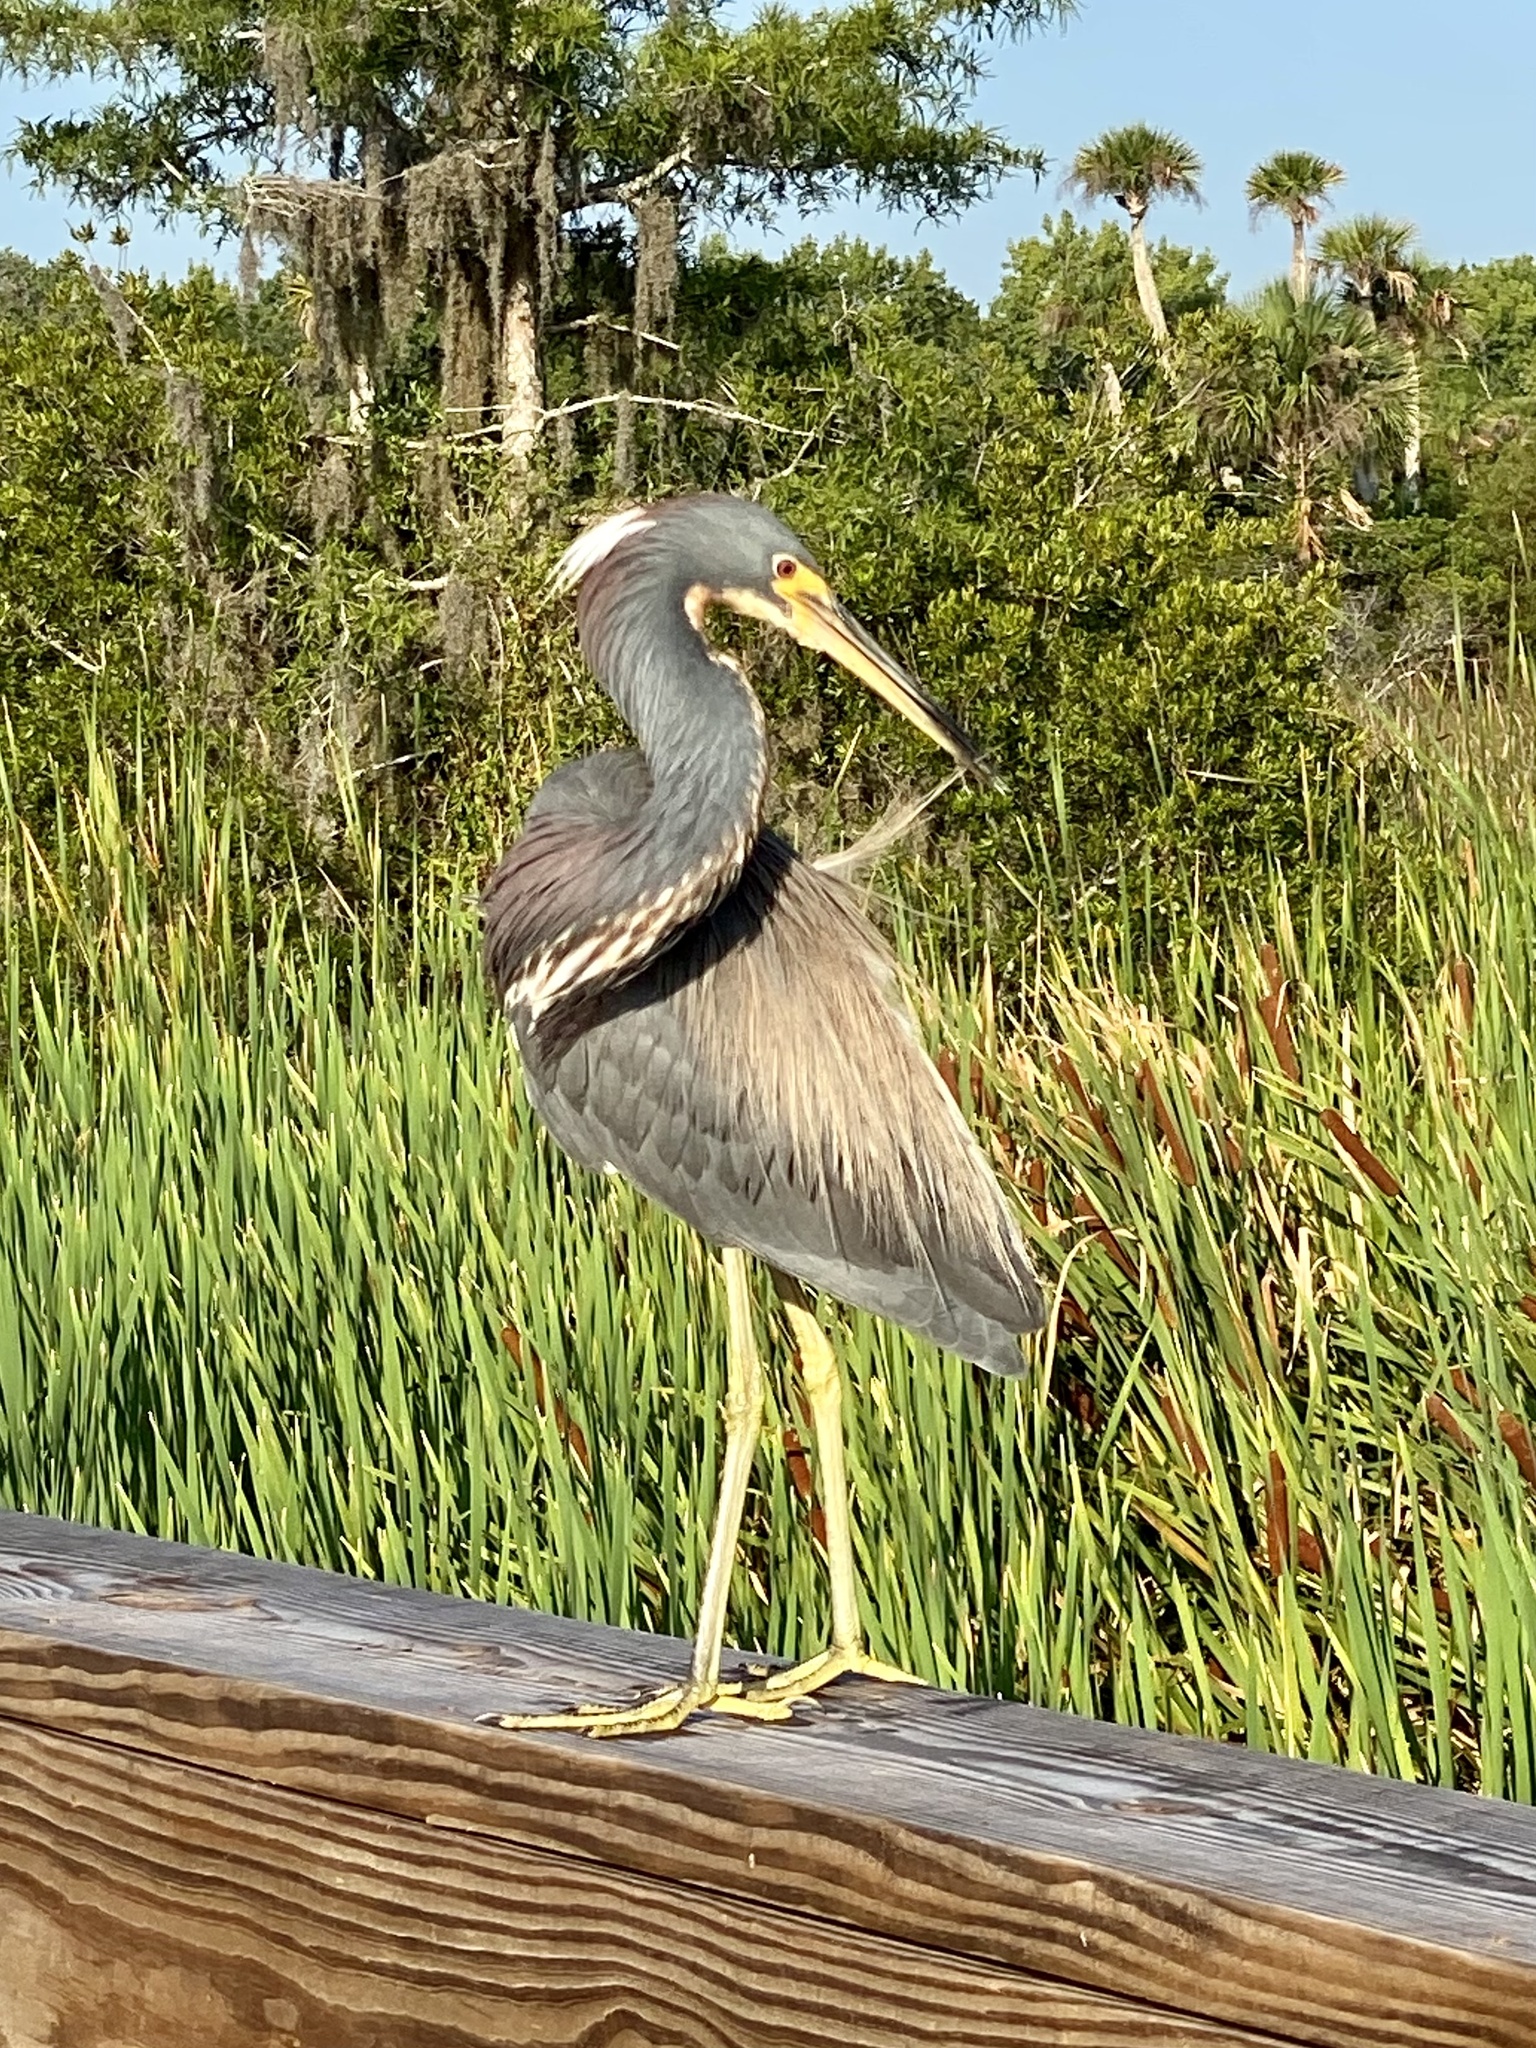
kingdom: Animalia
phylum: Chordata
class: Aves
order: Pelecaniformes
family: Ardeidae
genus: Egretta
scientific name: Egretta tricolor
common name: Tricolored heron
